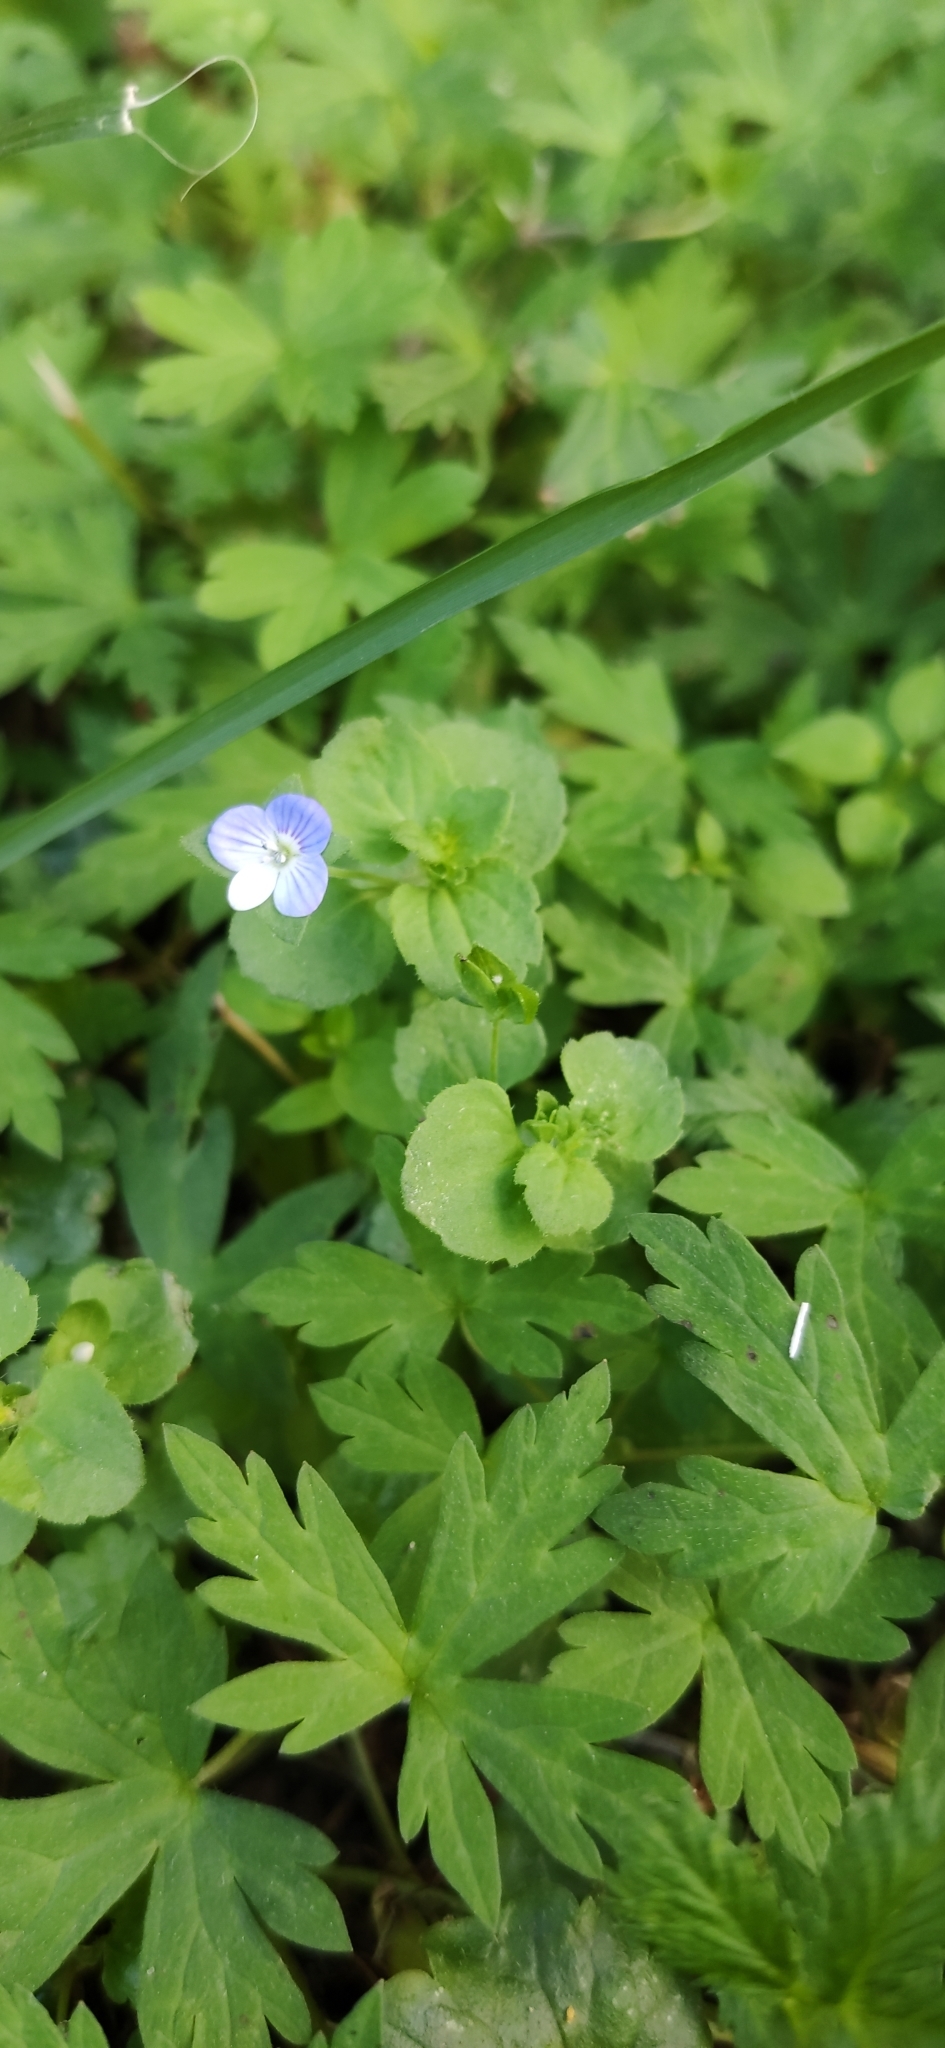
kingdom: Plantae
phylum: Tracheophyta
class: Magnoliopsida
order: Geraniales
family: Geraniaceae
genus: Geranium
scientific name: Geranium sibiricum
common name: Siberian crane's-bill
